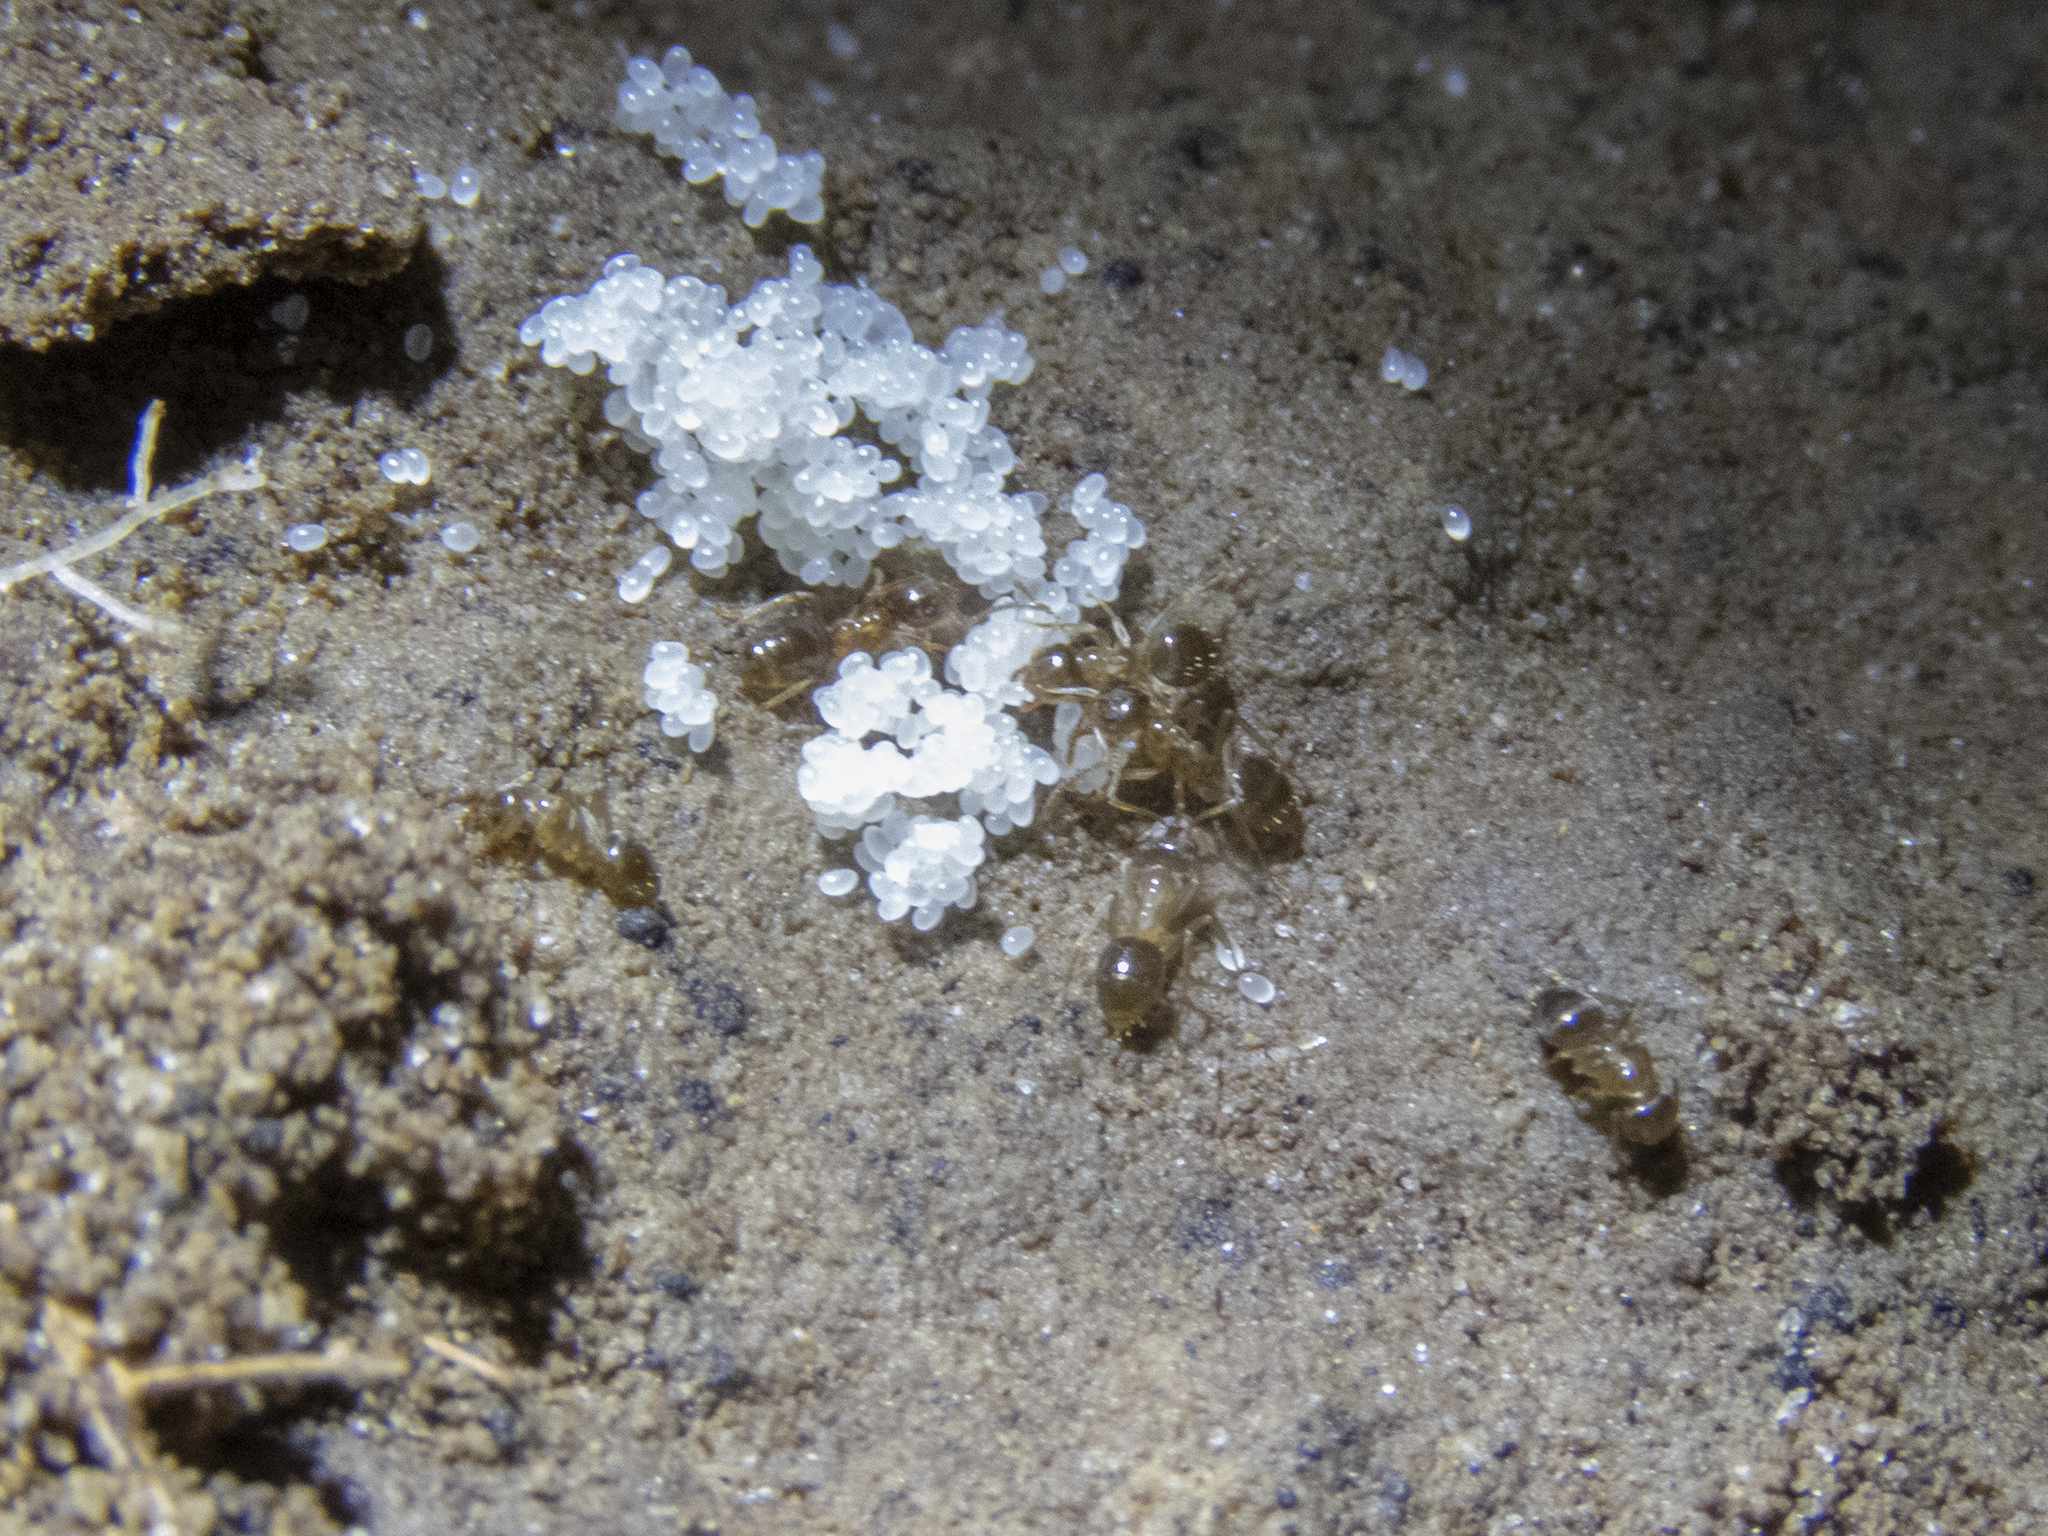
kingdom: Animalia
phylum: Arthropoda
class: Insecta
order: Hymenoptera
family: Formicidae
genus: Prolasius
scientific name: Prolasius advenus
